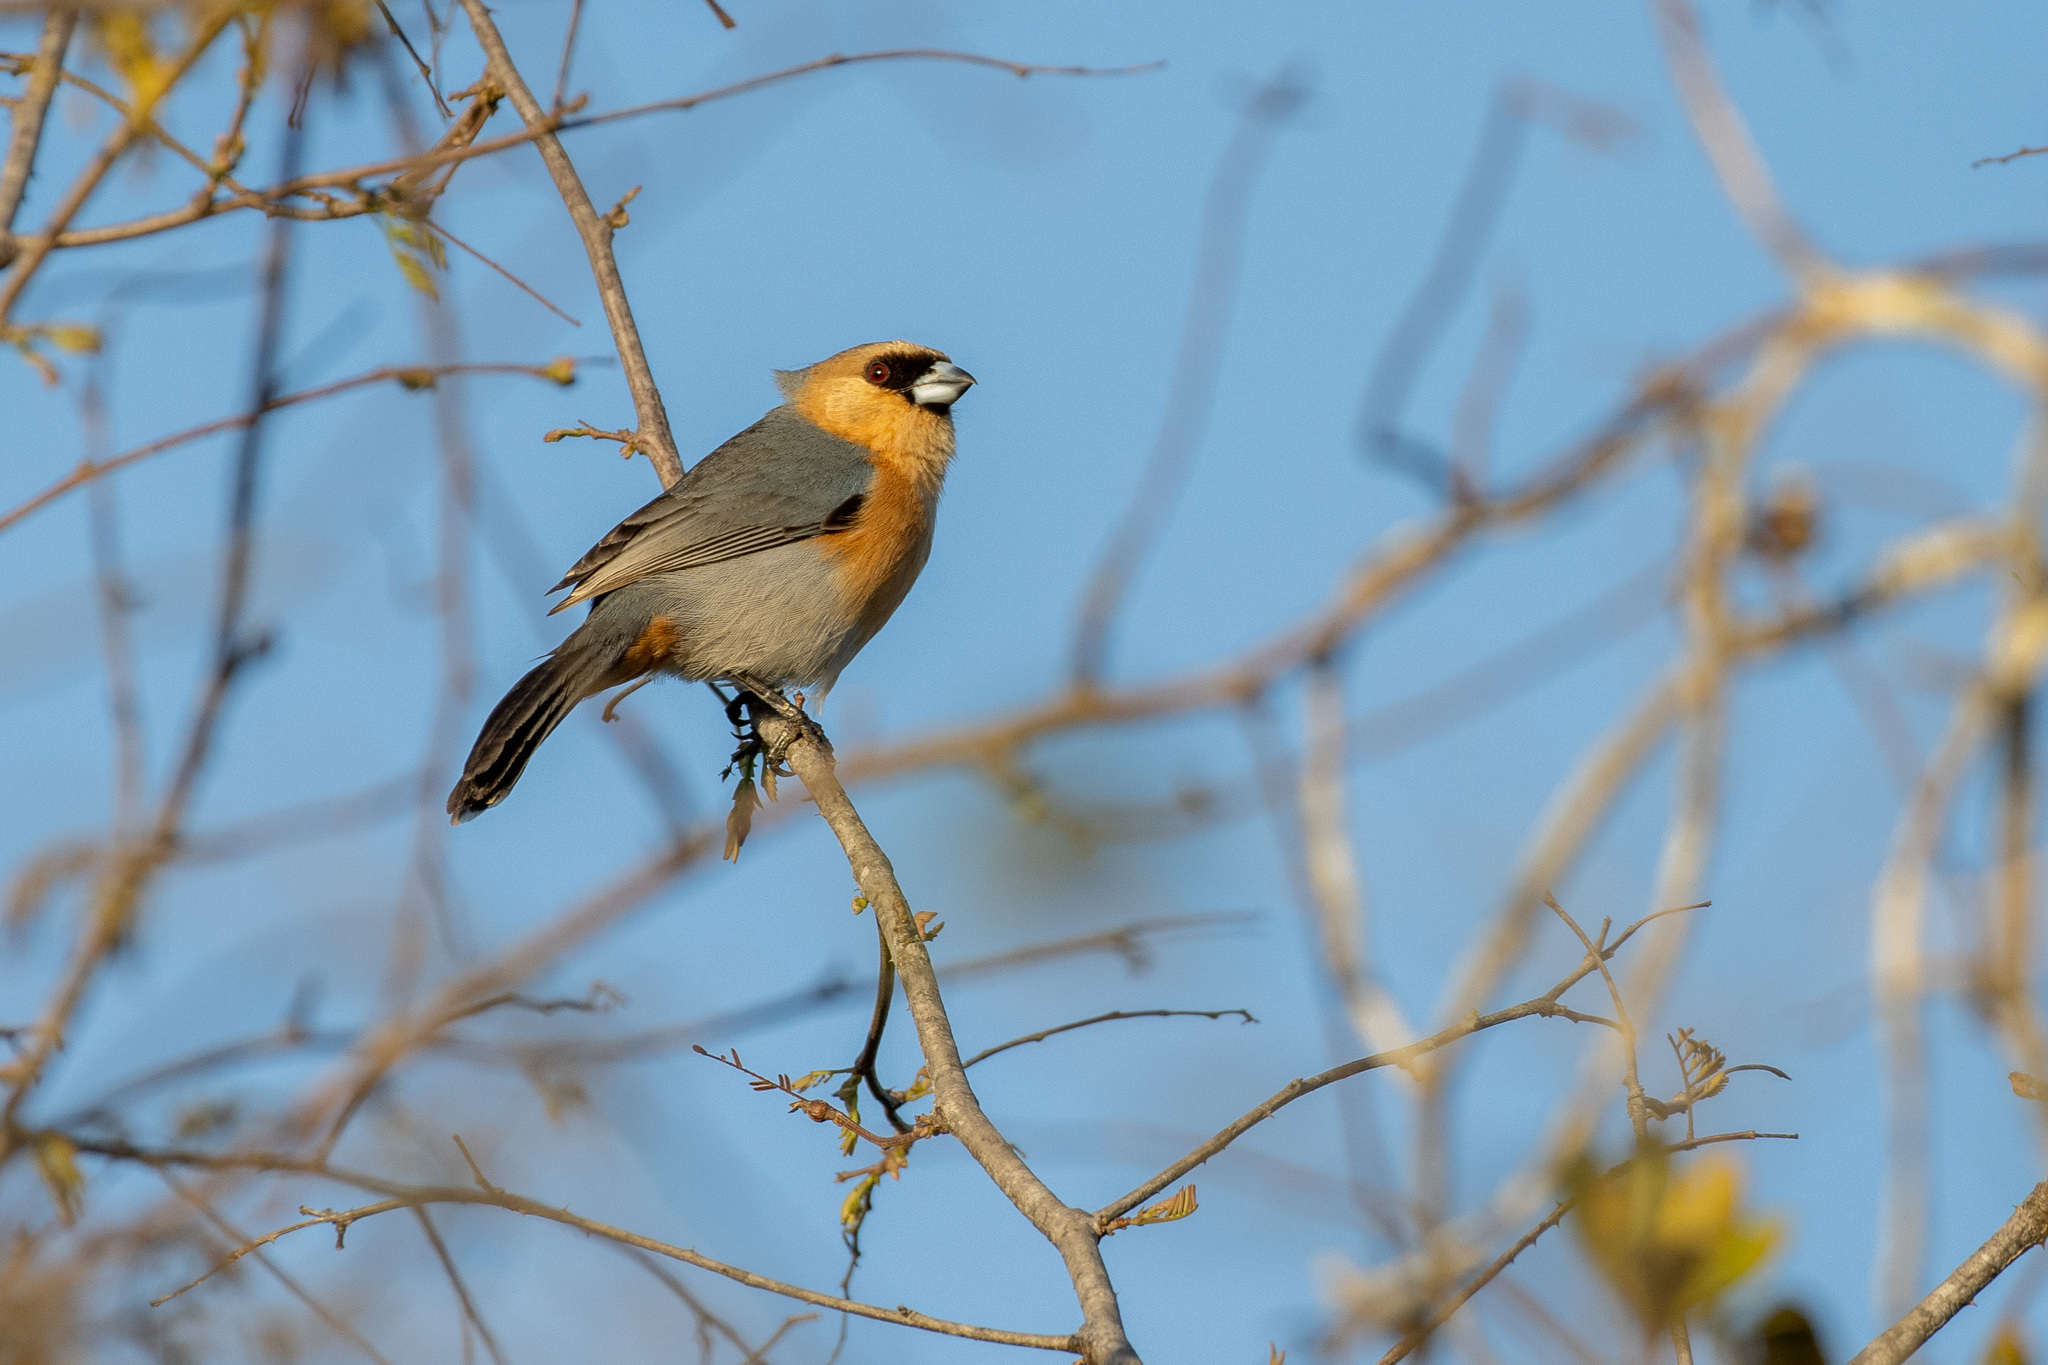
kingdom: Animalia
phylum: Chordata
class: Aves
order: Passeriformes
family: Thraupidae
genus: Schistochlamys
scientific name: Schistochlamys ruficapillus
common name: Cinnamon tanager
